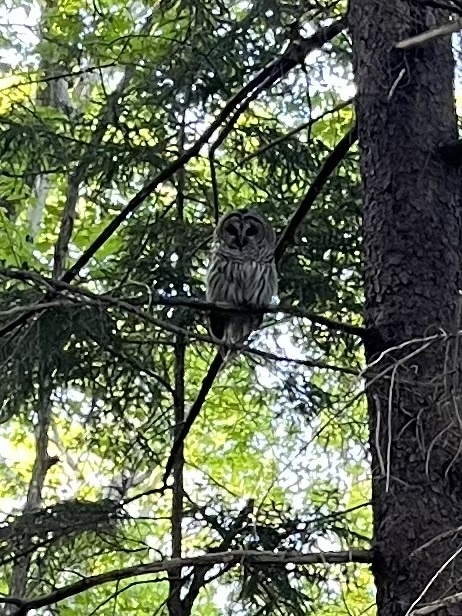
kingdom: Animalia
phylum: Chordata
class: Aves
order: Strigiformes
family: Strigidae
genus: Strix
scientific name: Strix varia
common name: Barred owl
